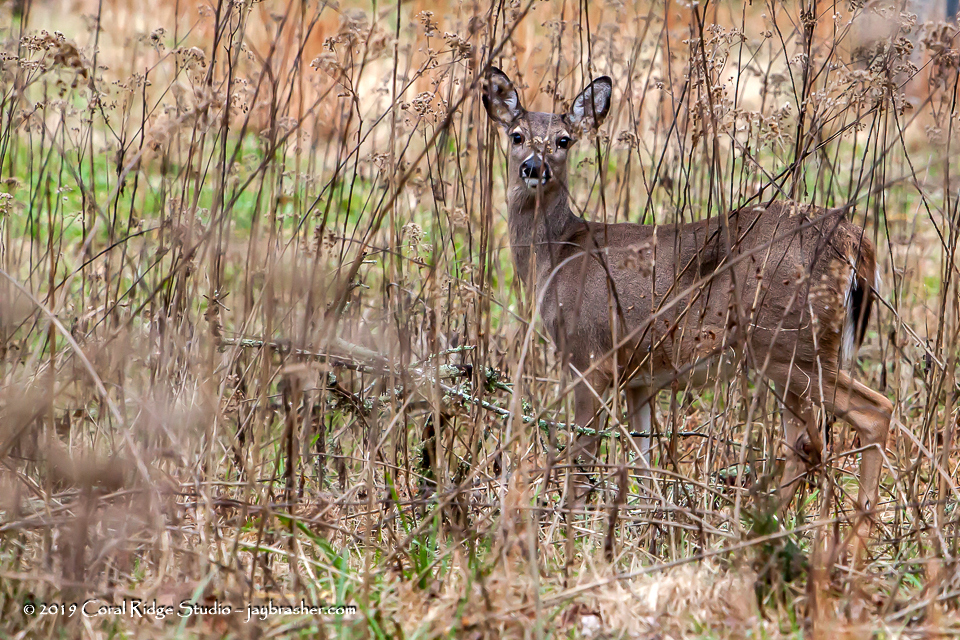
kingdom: Animalia
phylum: Chordata
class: Mammalia
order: Artiodactyla
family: Cervidae
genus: Odocoileus
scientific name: Odocoileus virginianus
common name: White-tailed deer
